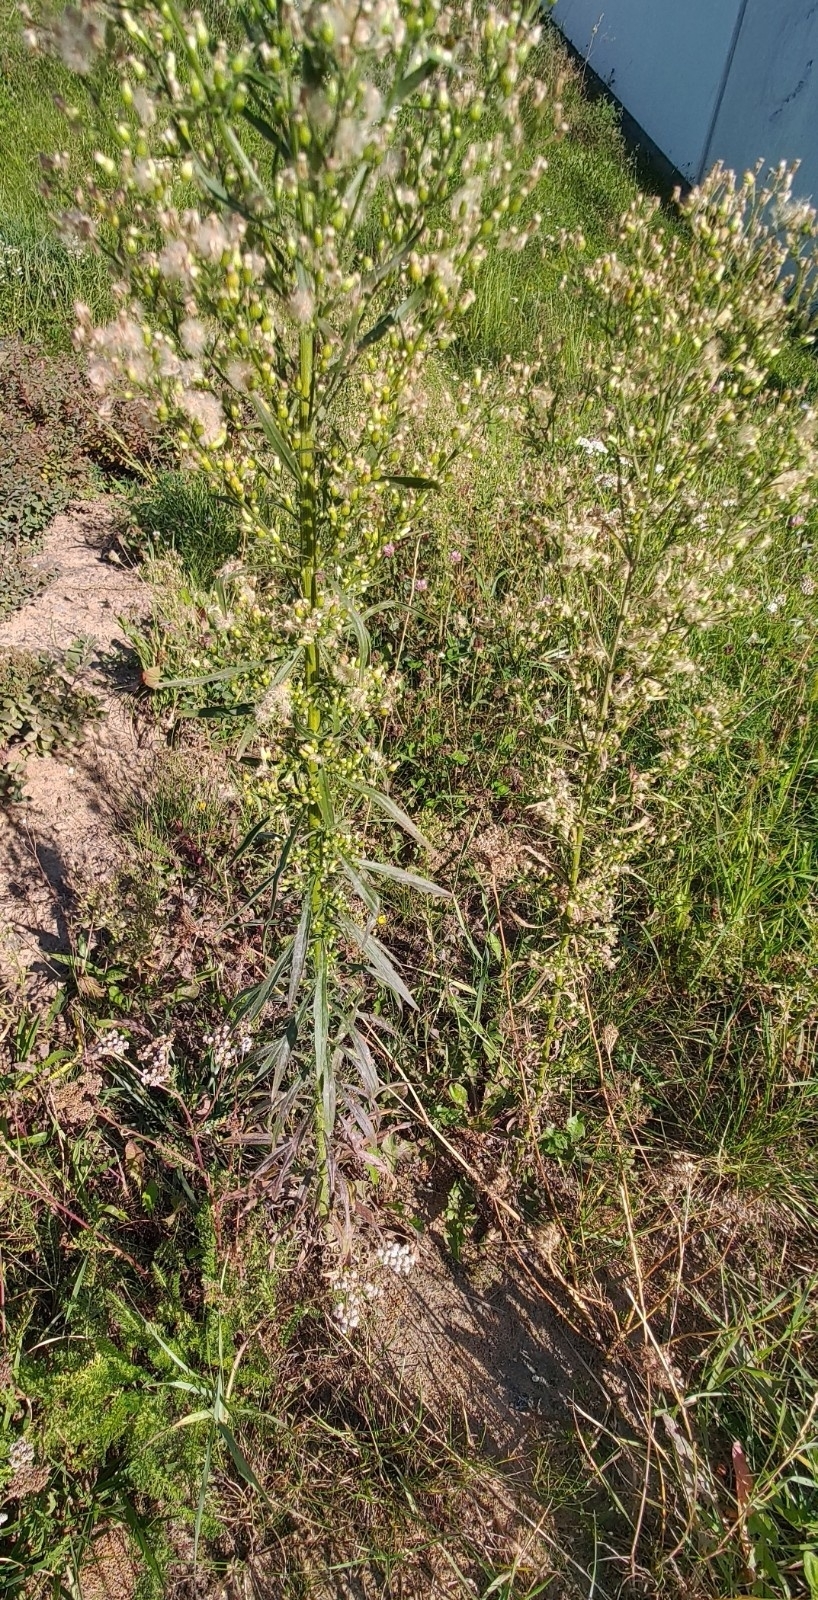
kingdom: Plantae
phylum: Tracheophyta
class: Magnoliopsida
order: Asterales
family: Asteraceae
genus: Erigeron
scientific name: Erigeron canadensis
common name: Canadian fleabane
